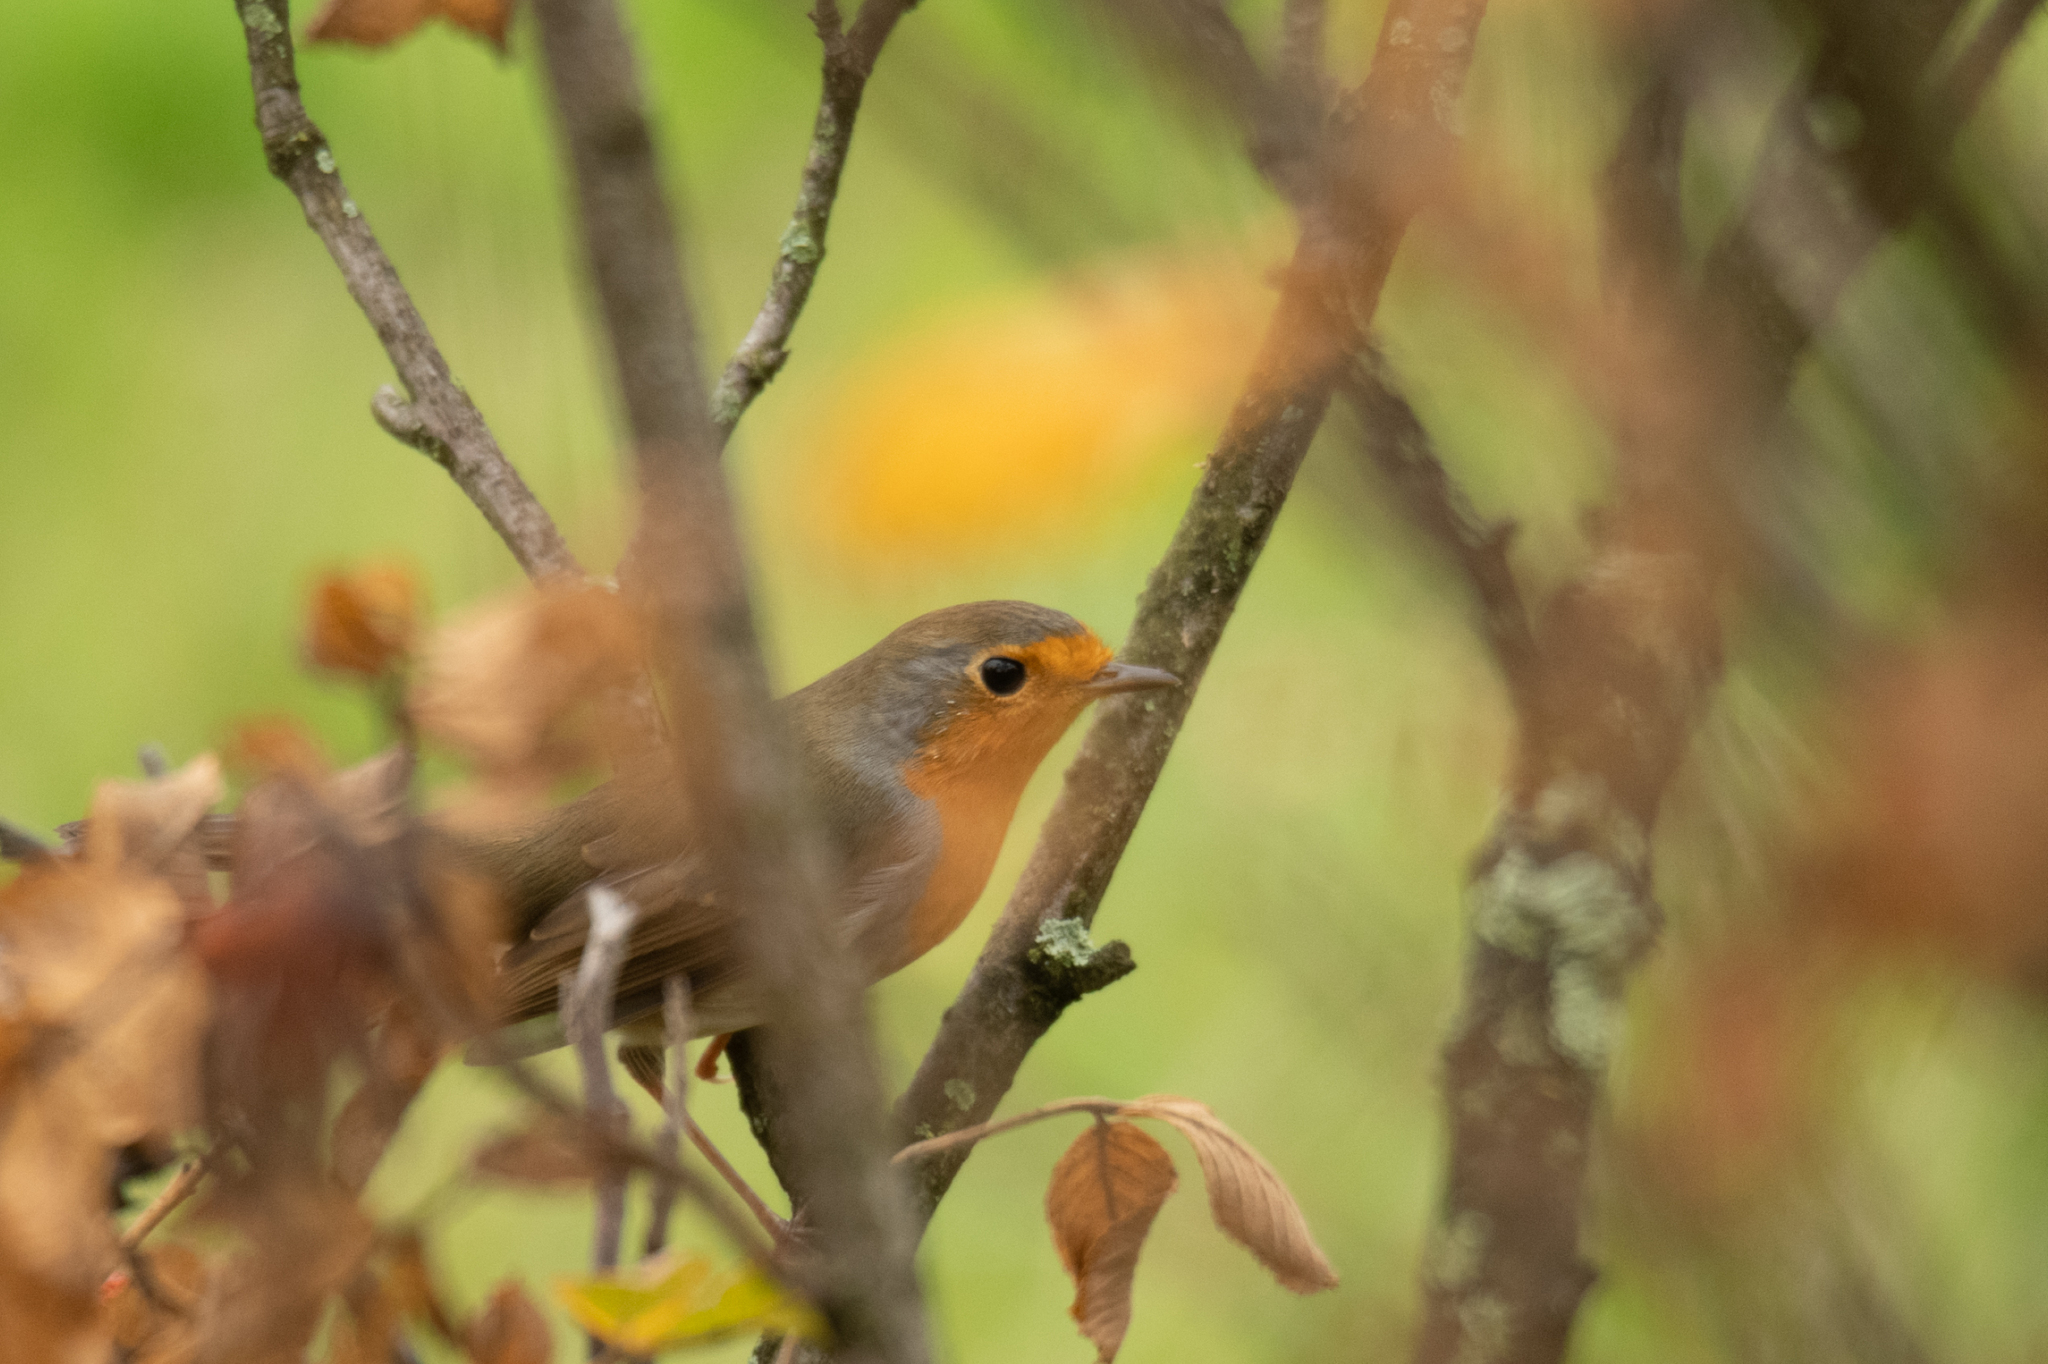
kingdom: Animalia
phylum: Chordata
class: Aves
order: Passeriformes
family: Muscicapidae
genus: Erithacus
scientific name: Erithacus rubecula
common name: European robin
